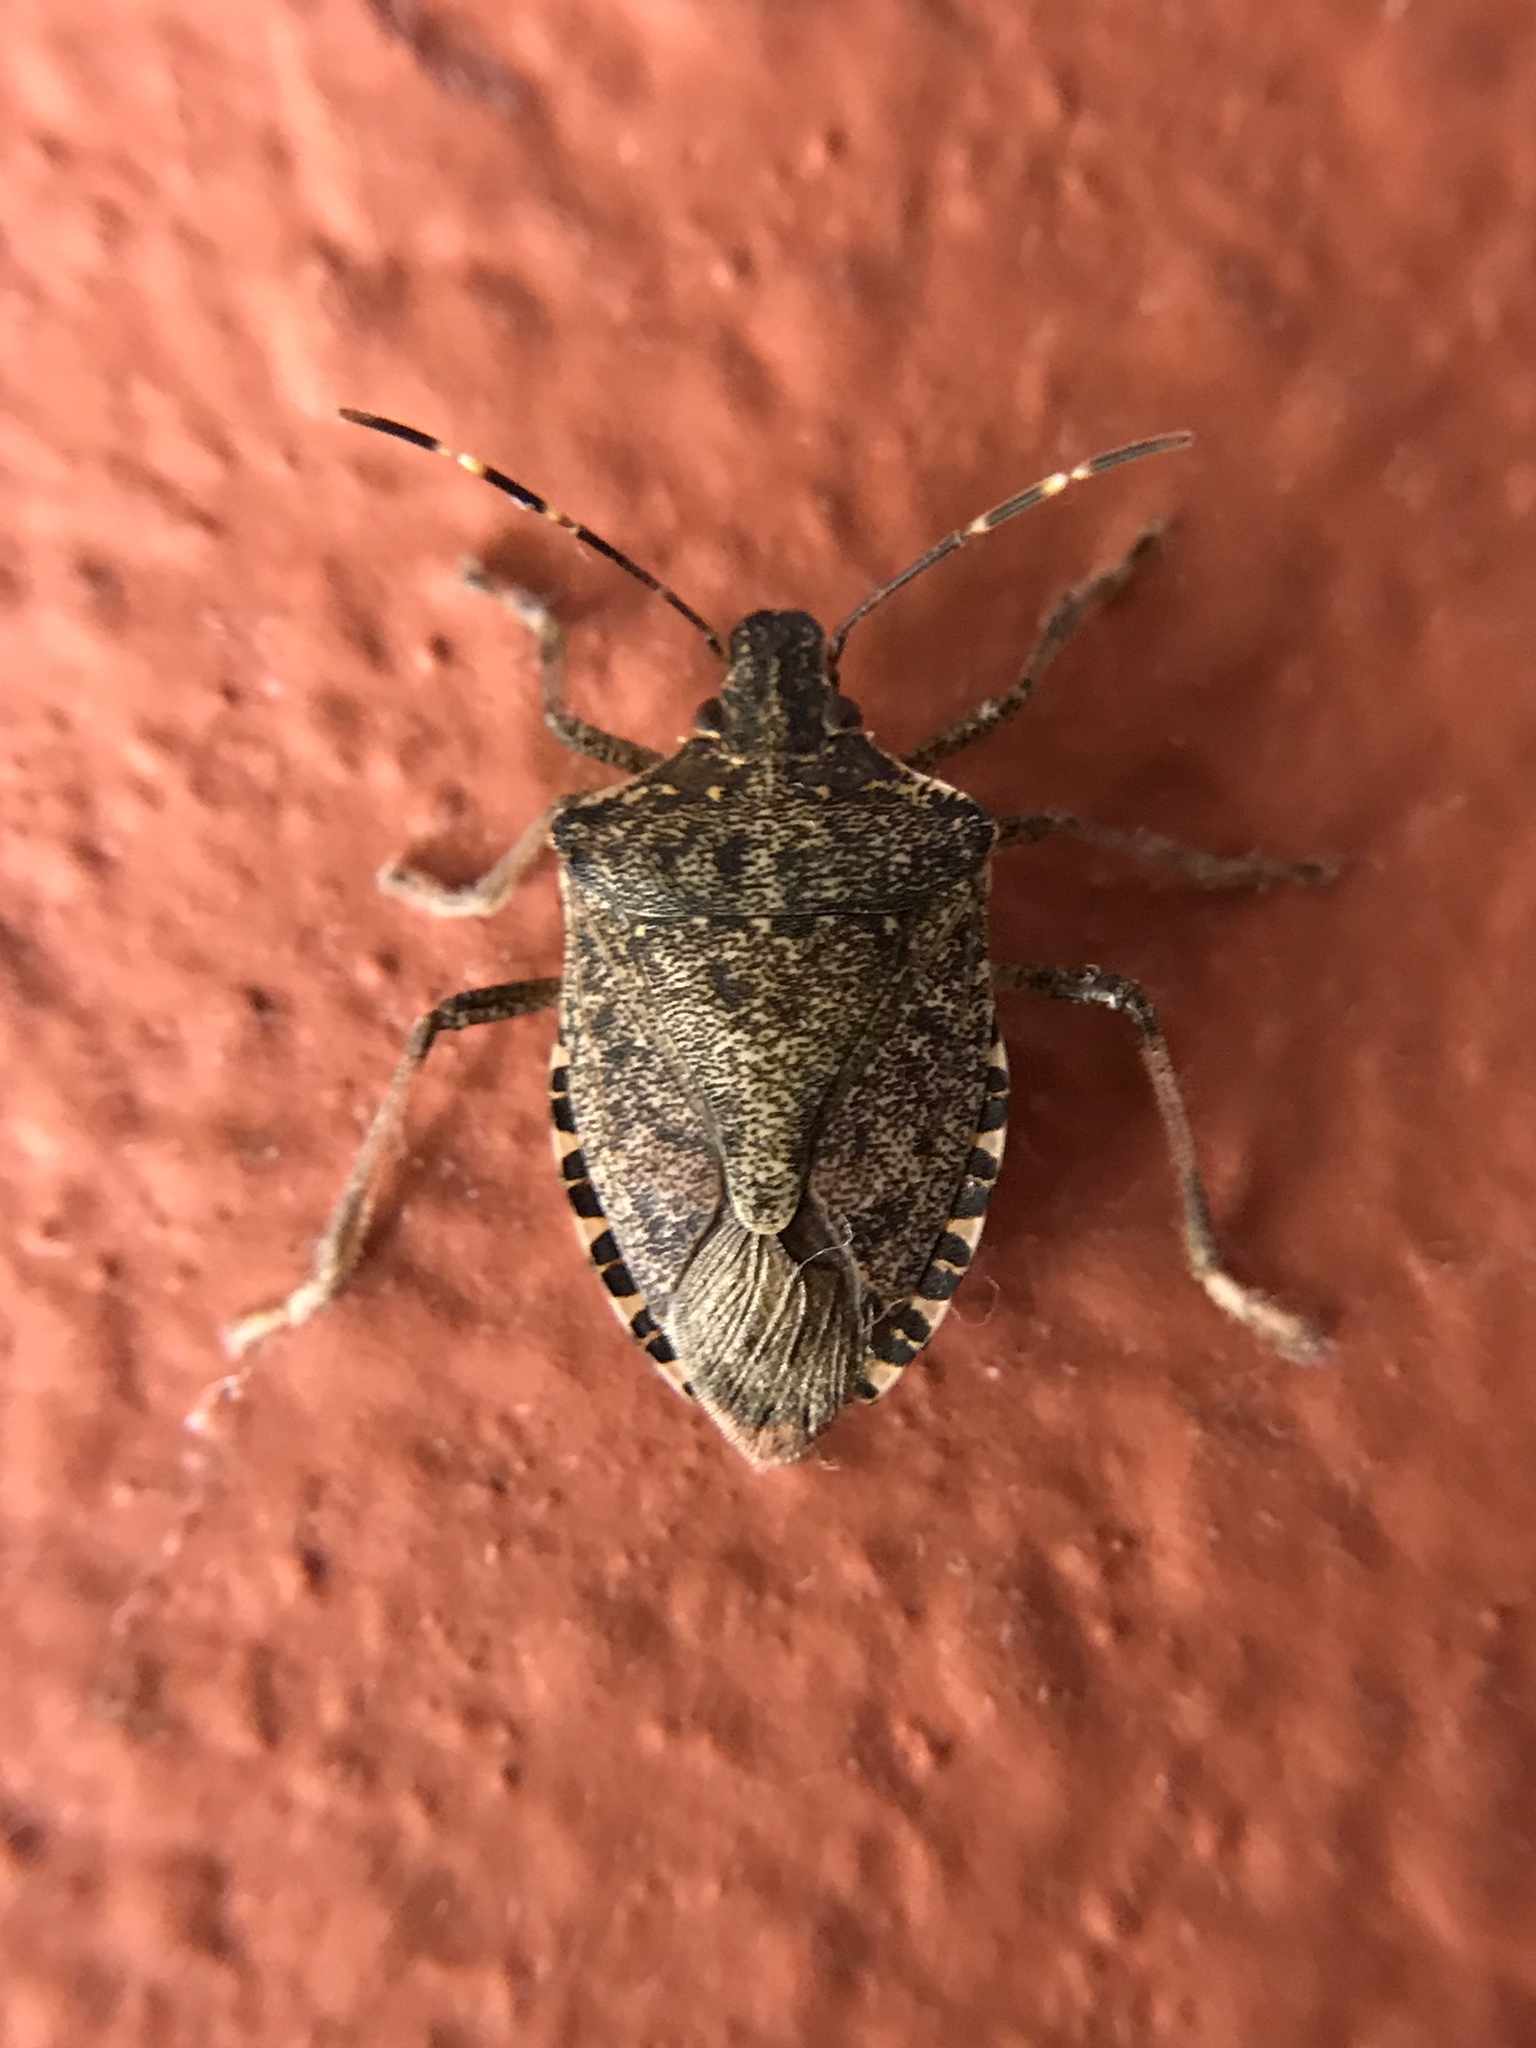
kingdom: Animalia
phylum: Arthropoda
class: Insecta
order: Hemiptera
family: Pentatomidae
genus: Halyomorpha
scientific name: Halyomorpha halys
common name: Brown marmorated stink bug
